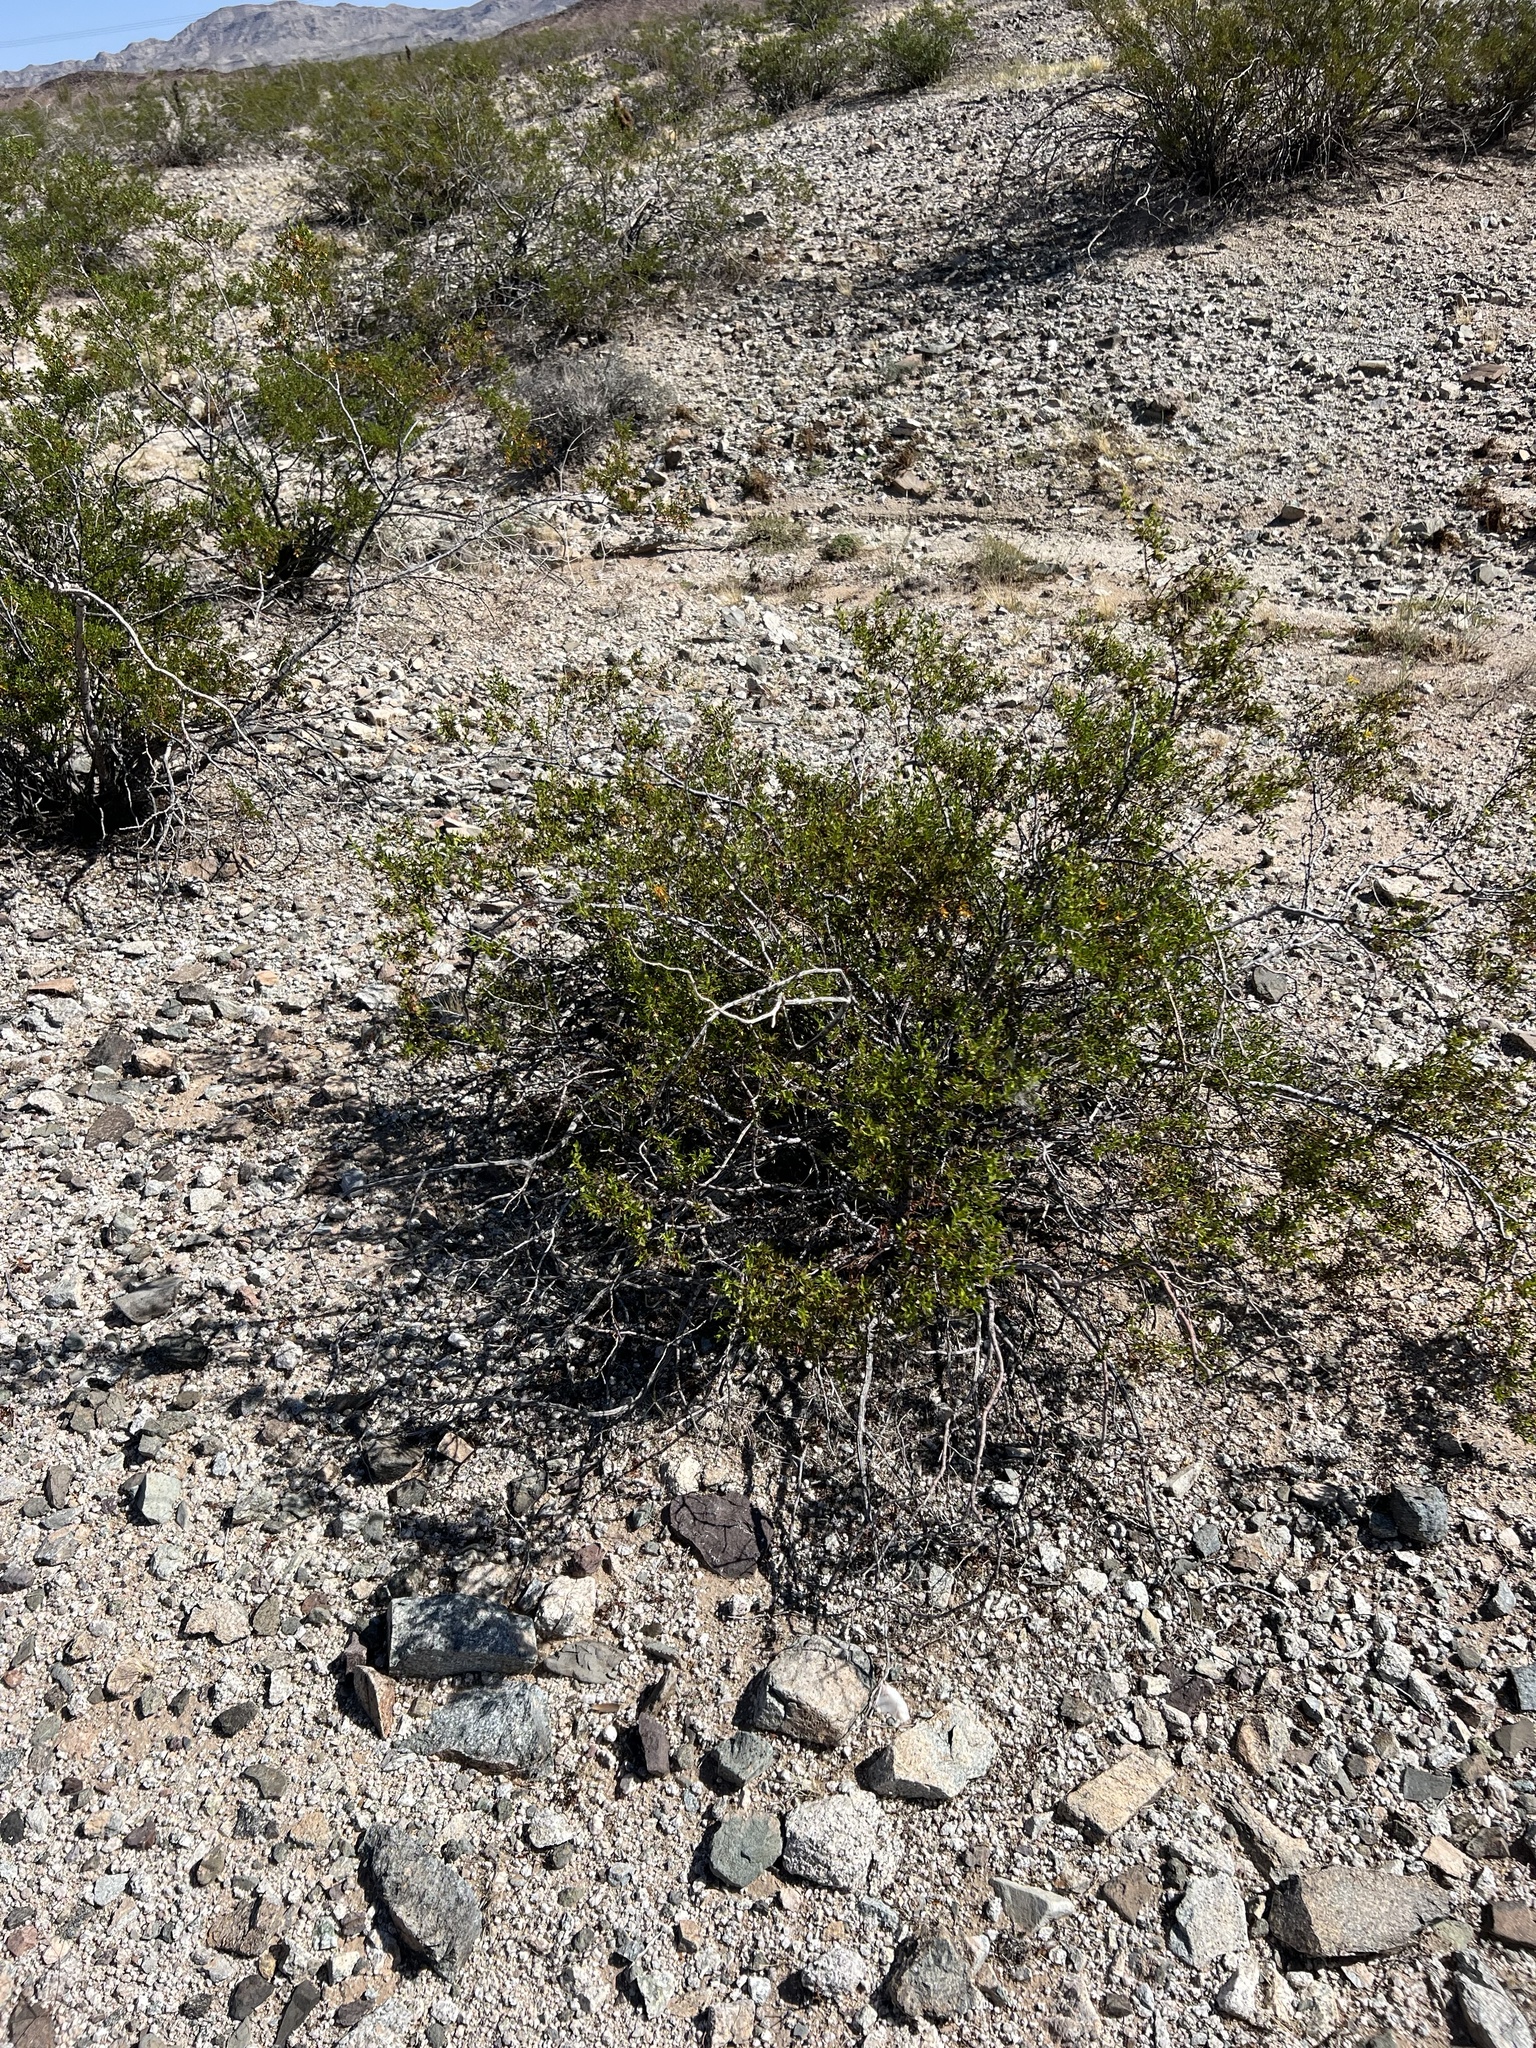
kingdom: Plantae
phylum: Tracheophyta
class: Magnoliopsida
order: Zygophyllales
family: Zygophyllaceae
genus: Larrea
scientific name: Larrea tridentata
